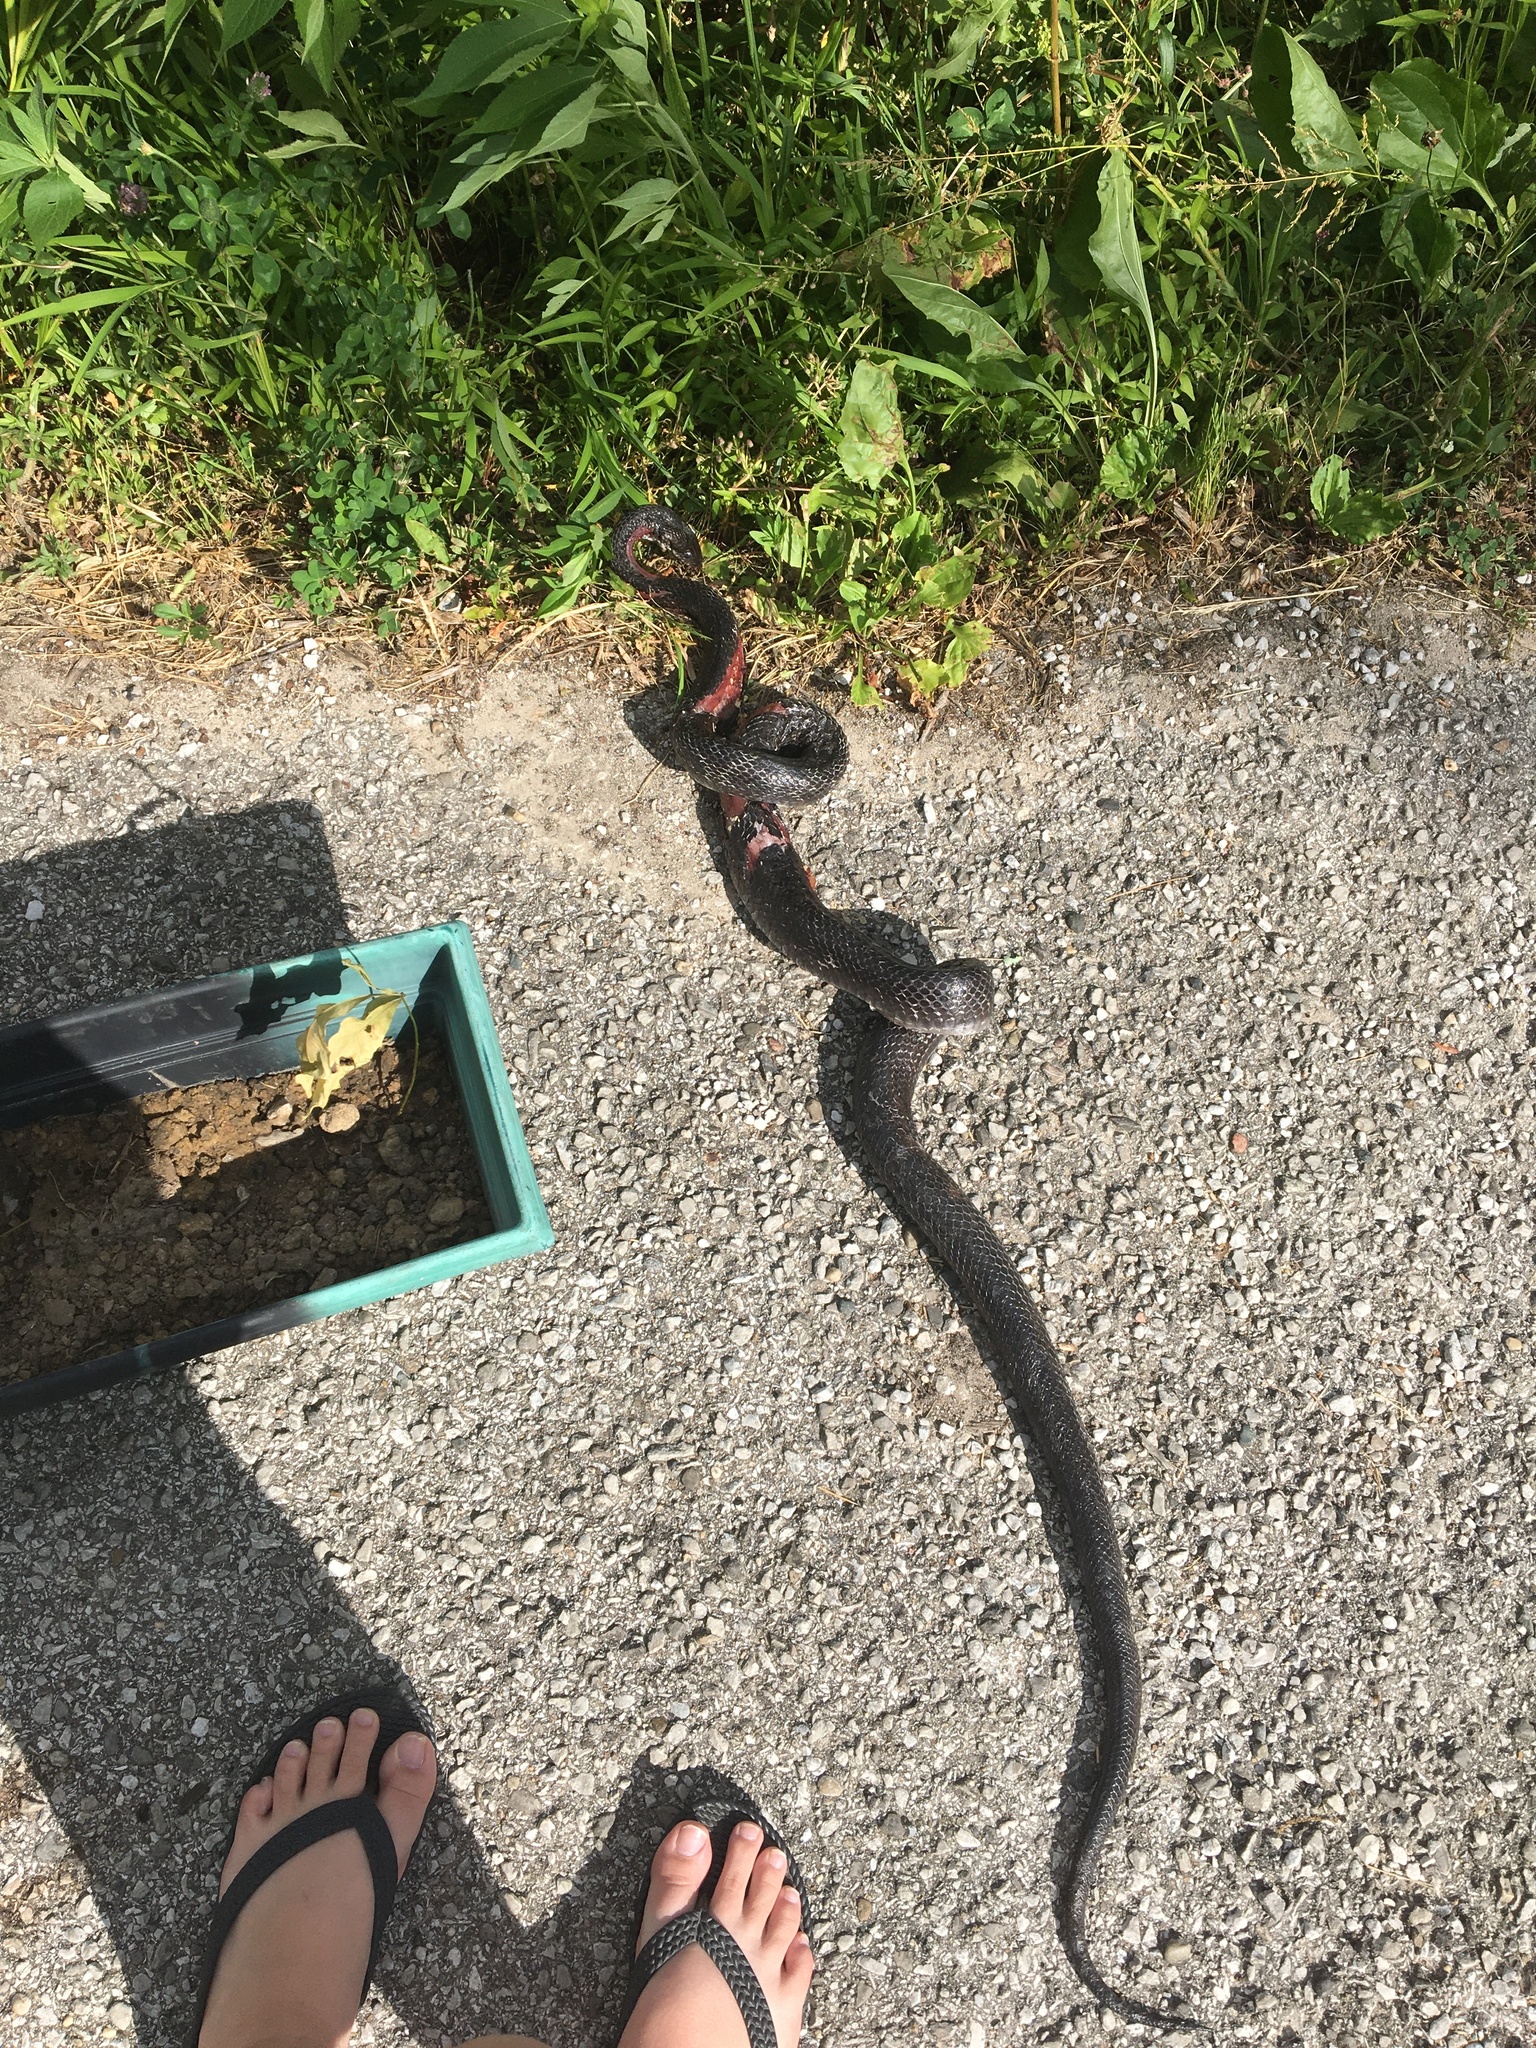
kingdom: Animalia
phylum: Chordata
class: Squamata
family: Colubridae
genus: Pantherophis
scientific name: Pantherophis spiloides
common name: Gray rat snake
